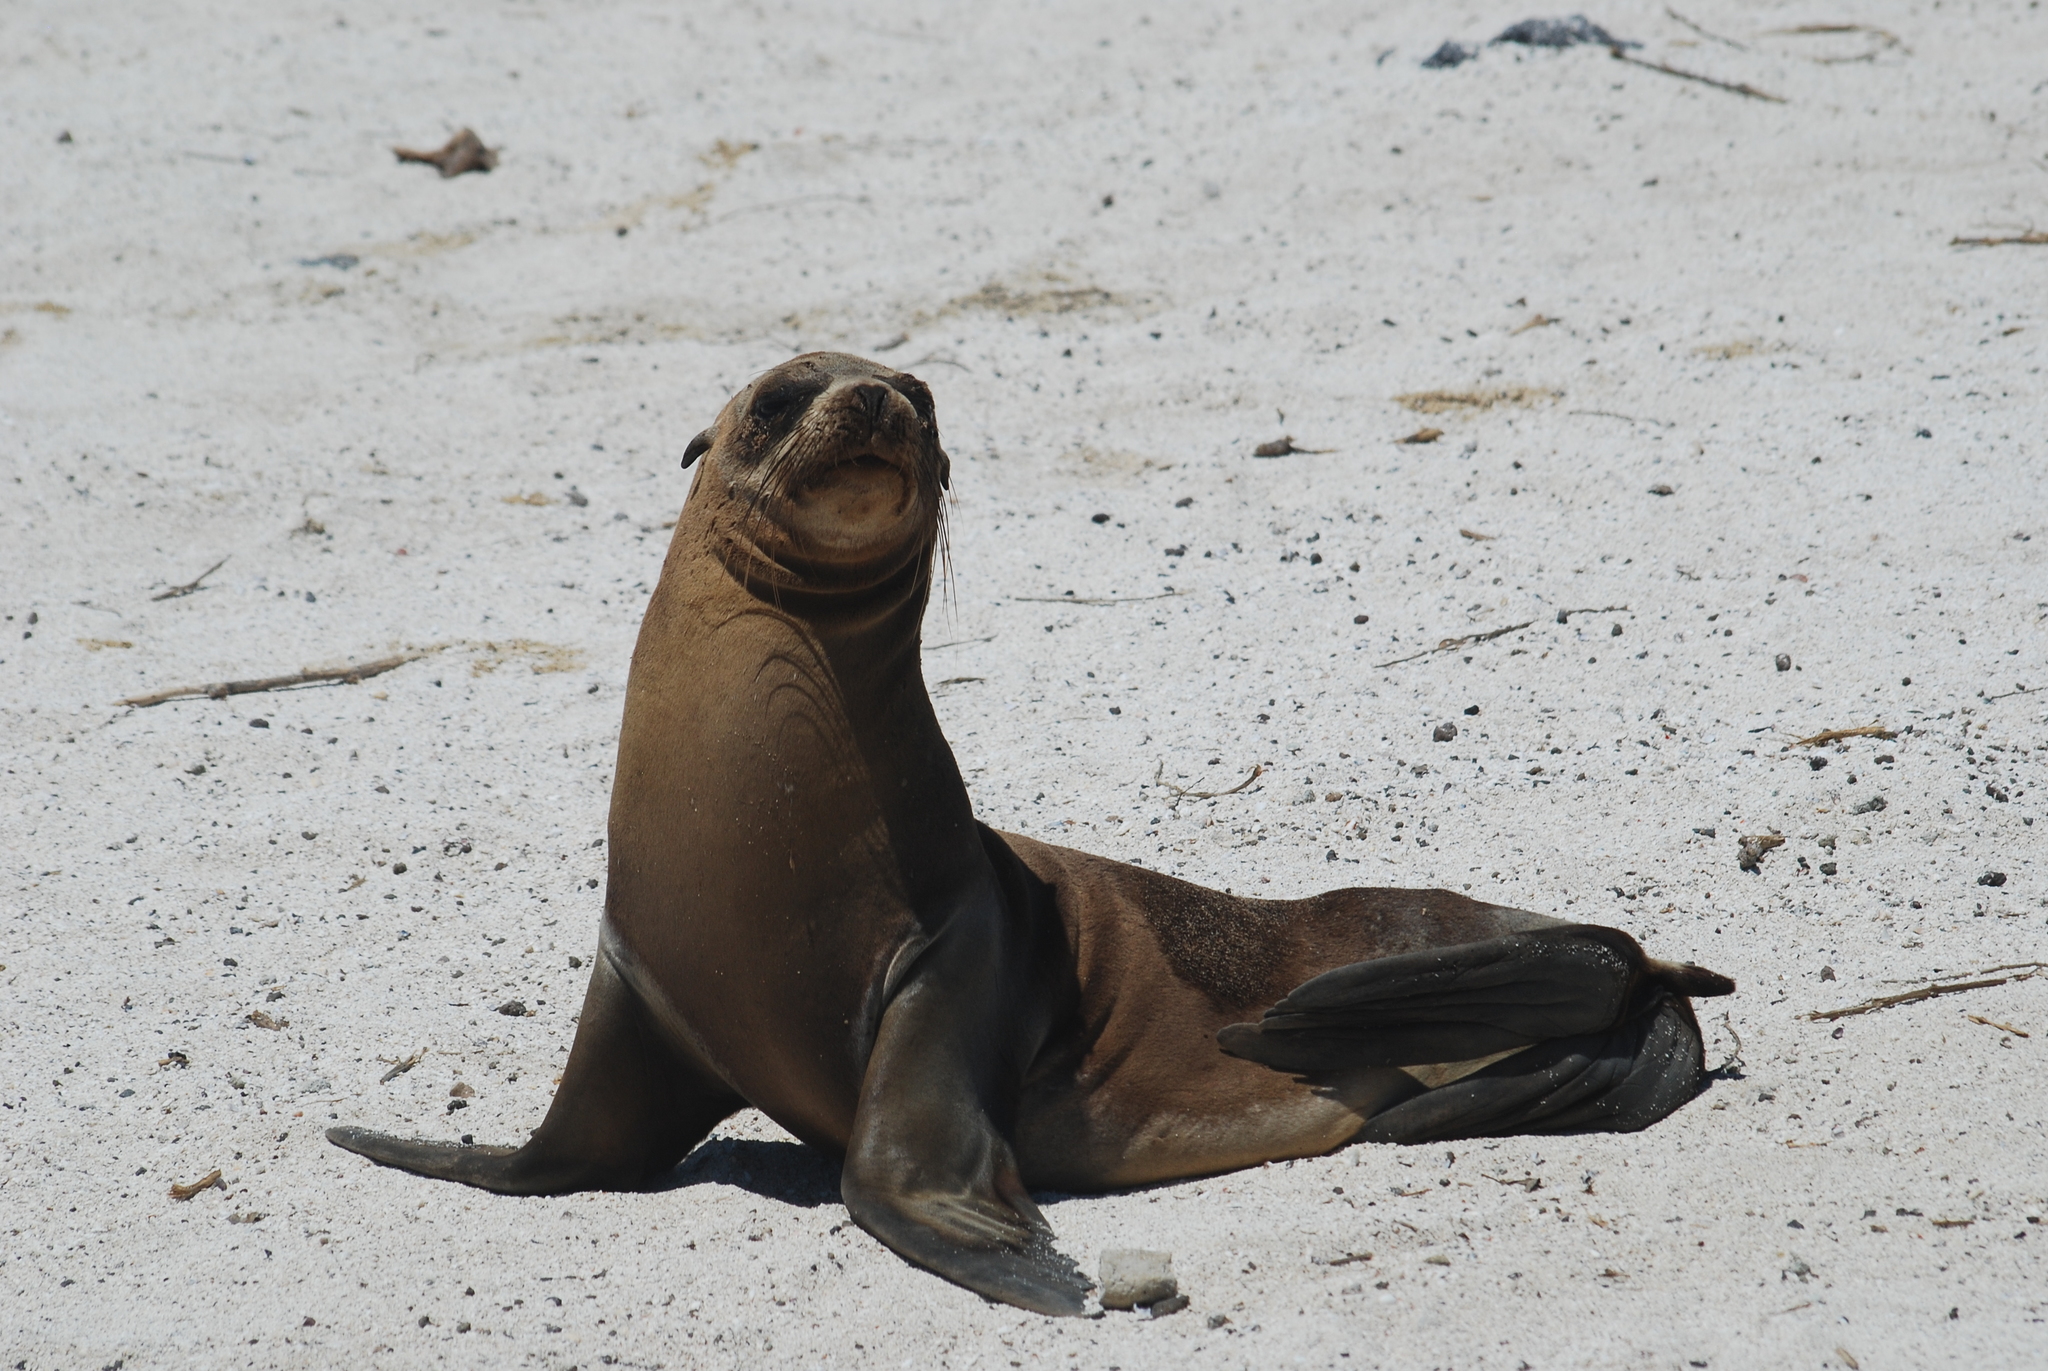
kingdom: Animalia
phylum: Chordata
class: Mammalia
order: Carnivora
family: Otariidae
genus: Zalophus
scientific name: Zalophus wollebaeki
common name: Galapagos sea lion
